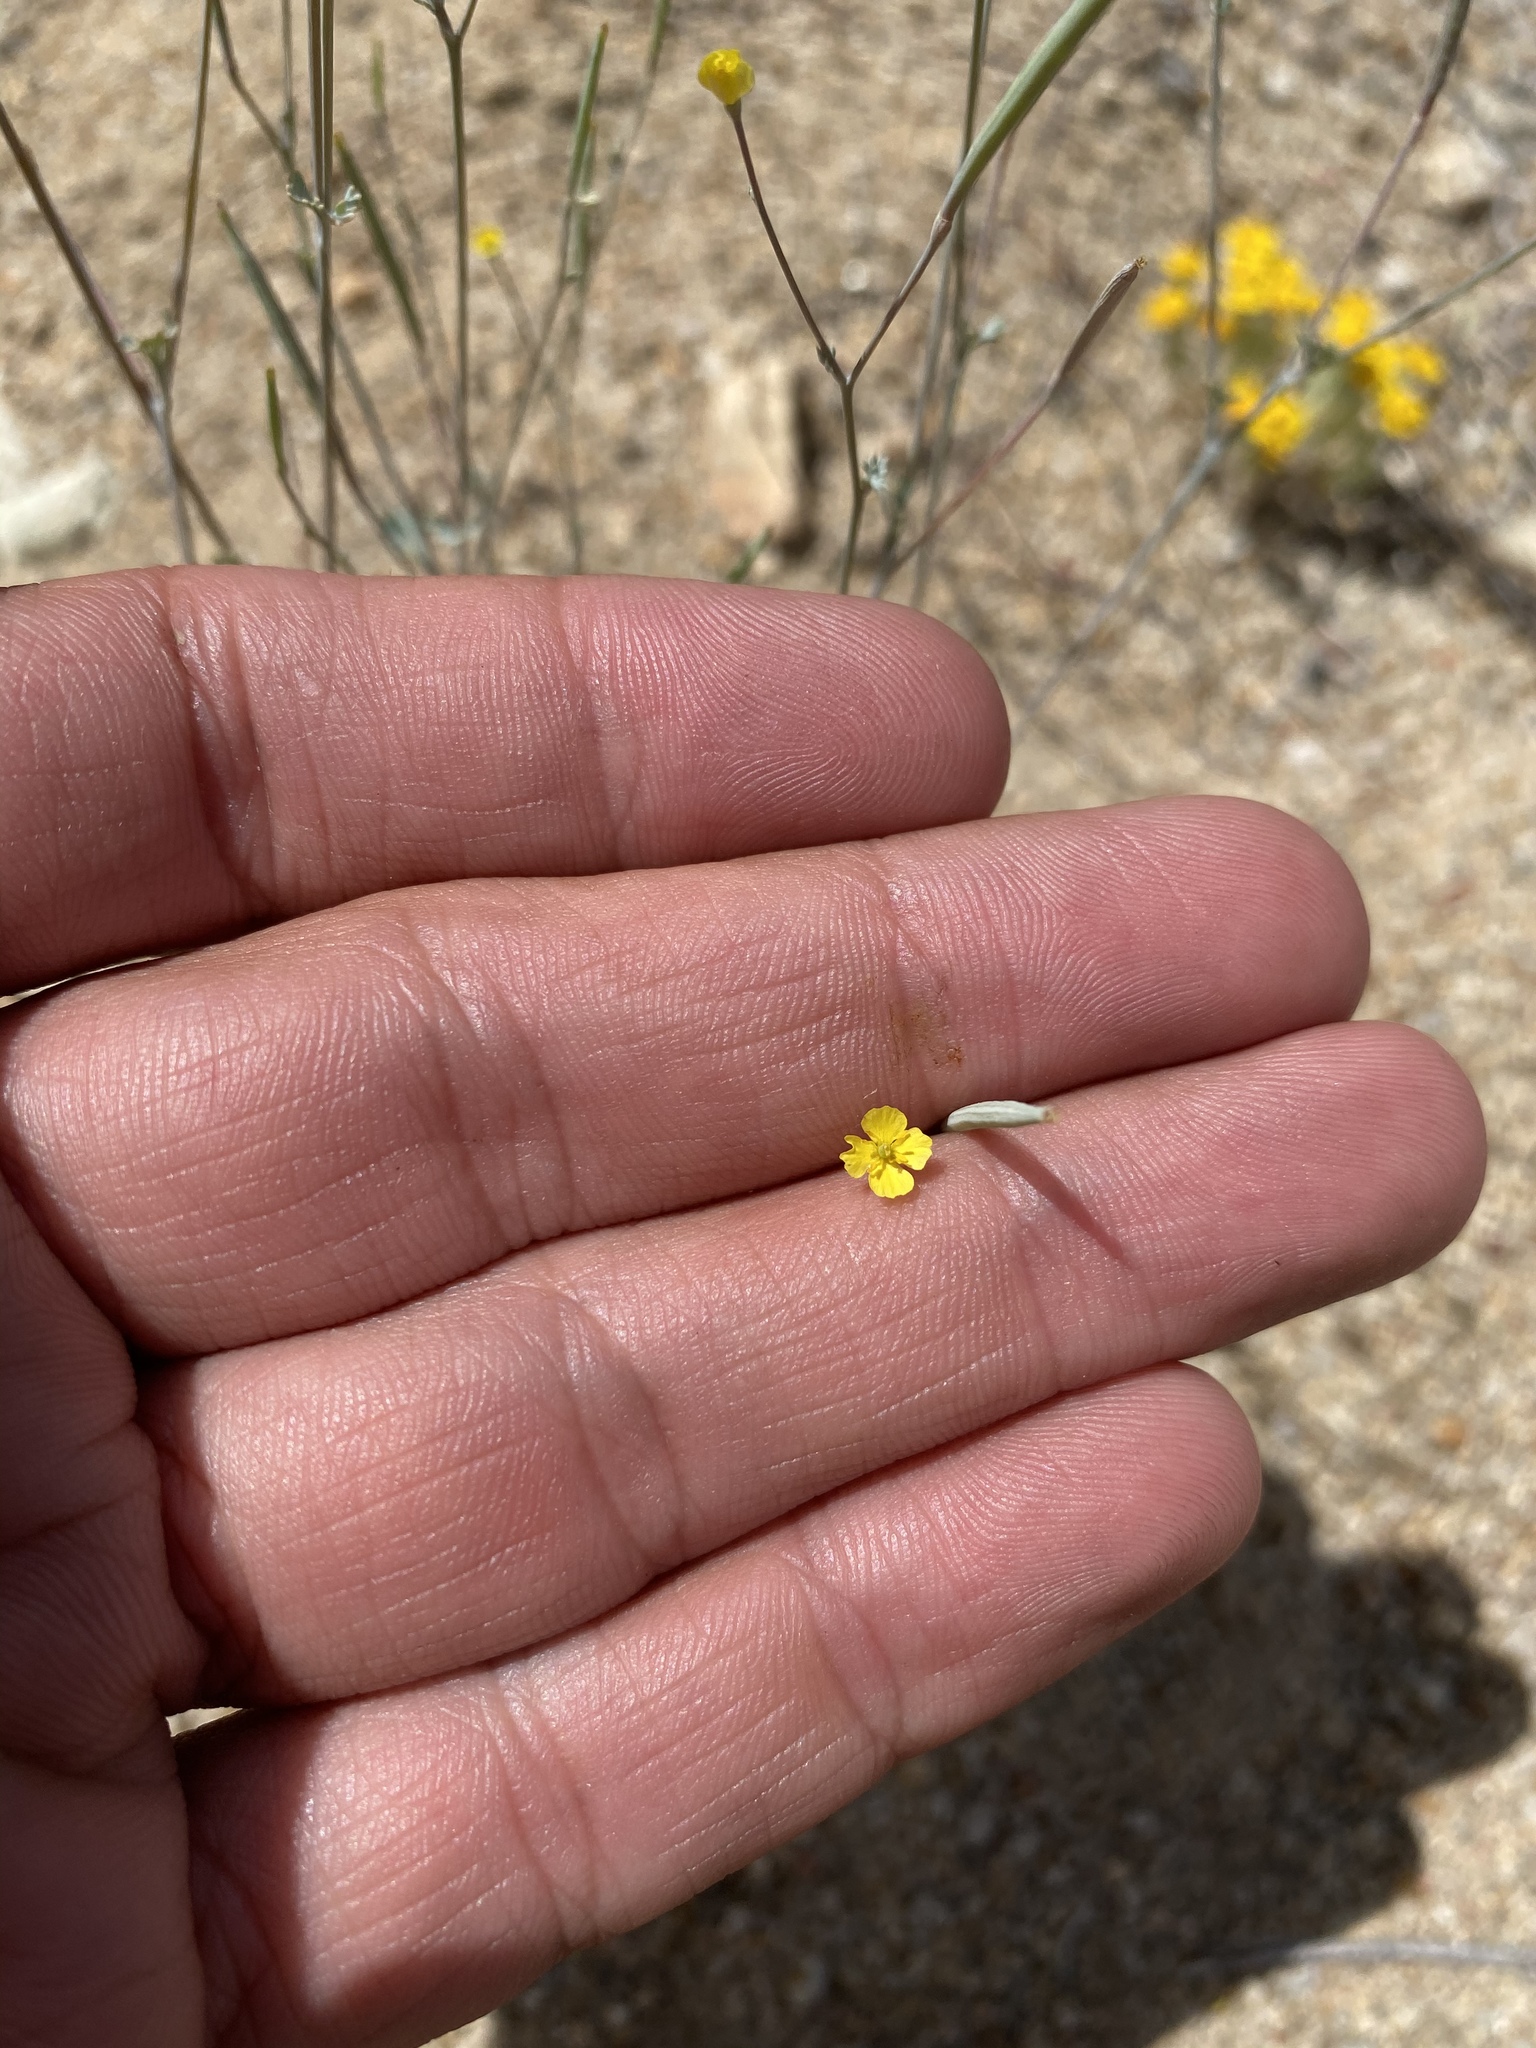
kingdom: Plantae
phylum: Tracheophyta
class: Magnoliopsida
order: Ranunculales
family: Papaveraceae
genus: Eschscholzia
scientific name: Eschscholzia minutiflora
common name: Small-flower california-poppy
